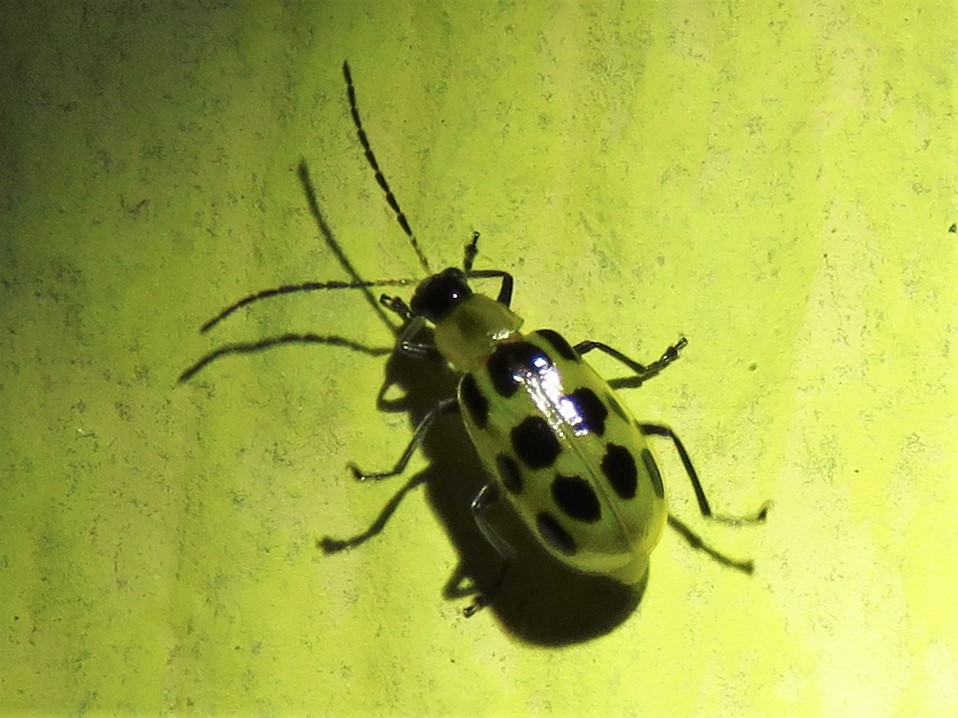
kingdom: Animalia
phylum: Arthropoda
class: Insecta
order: Coleoptera
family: Chrysomelidae
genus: Diabrotica
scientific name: Diabrotica undecimpunctata
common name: Spotted cucumber beetle
